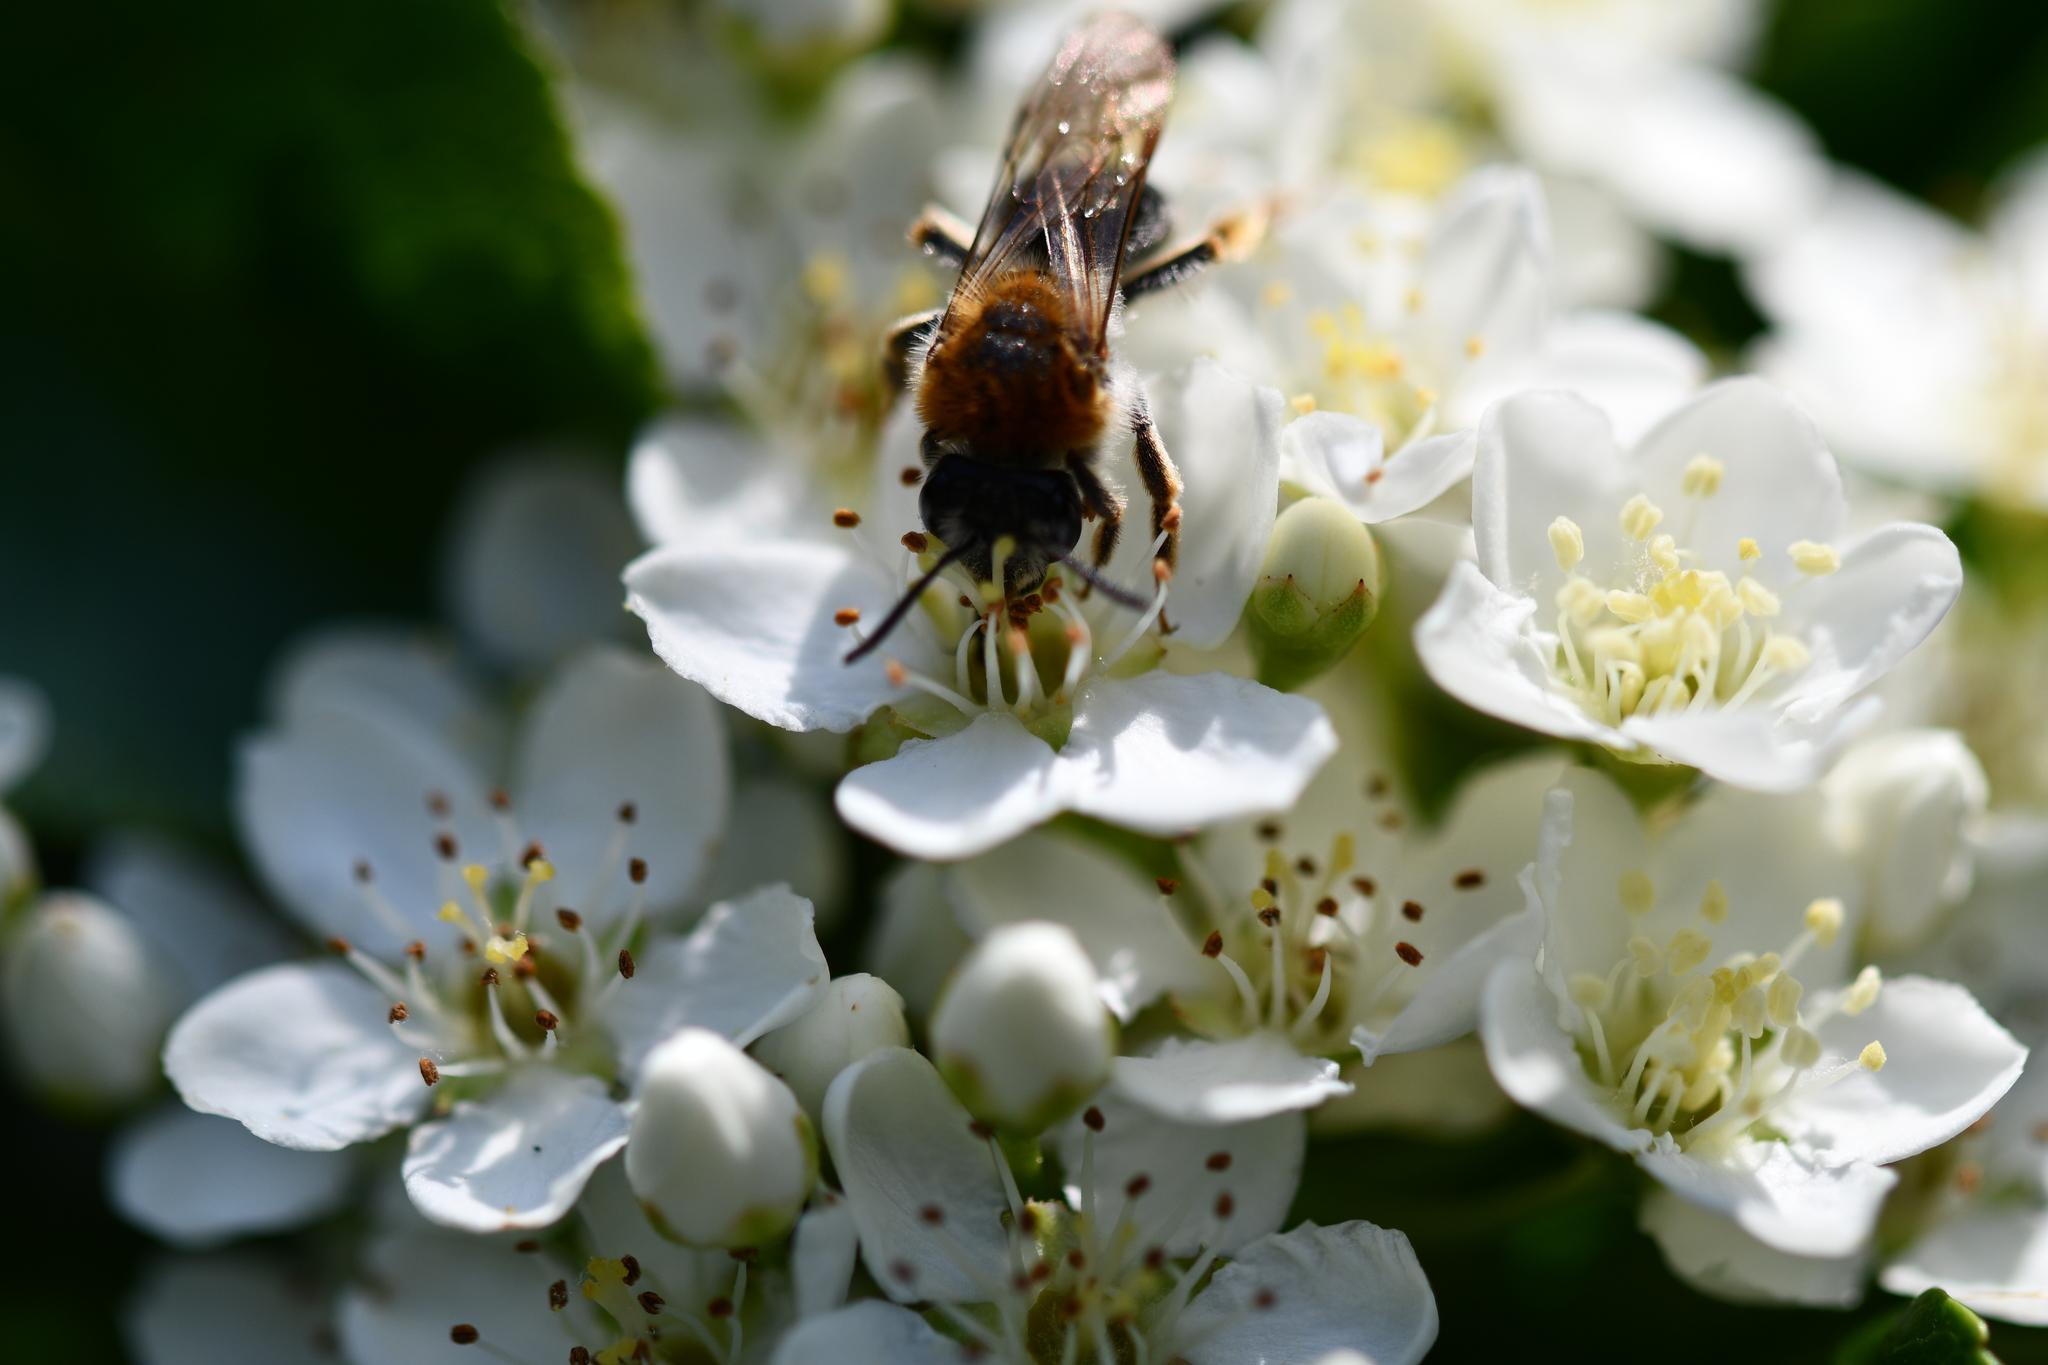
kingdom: Animalia
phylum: Arthropoda
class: Insecta
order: Hymenoptera
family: Andrenidae
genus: Andrena
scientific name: Andrena haemorrhoa
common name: Early mining bee
